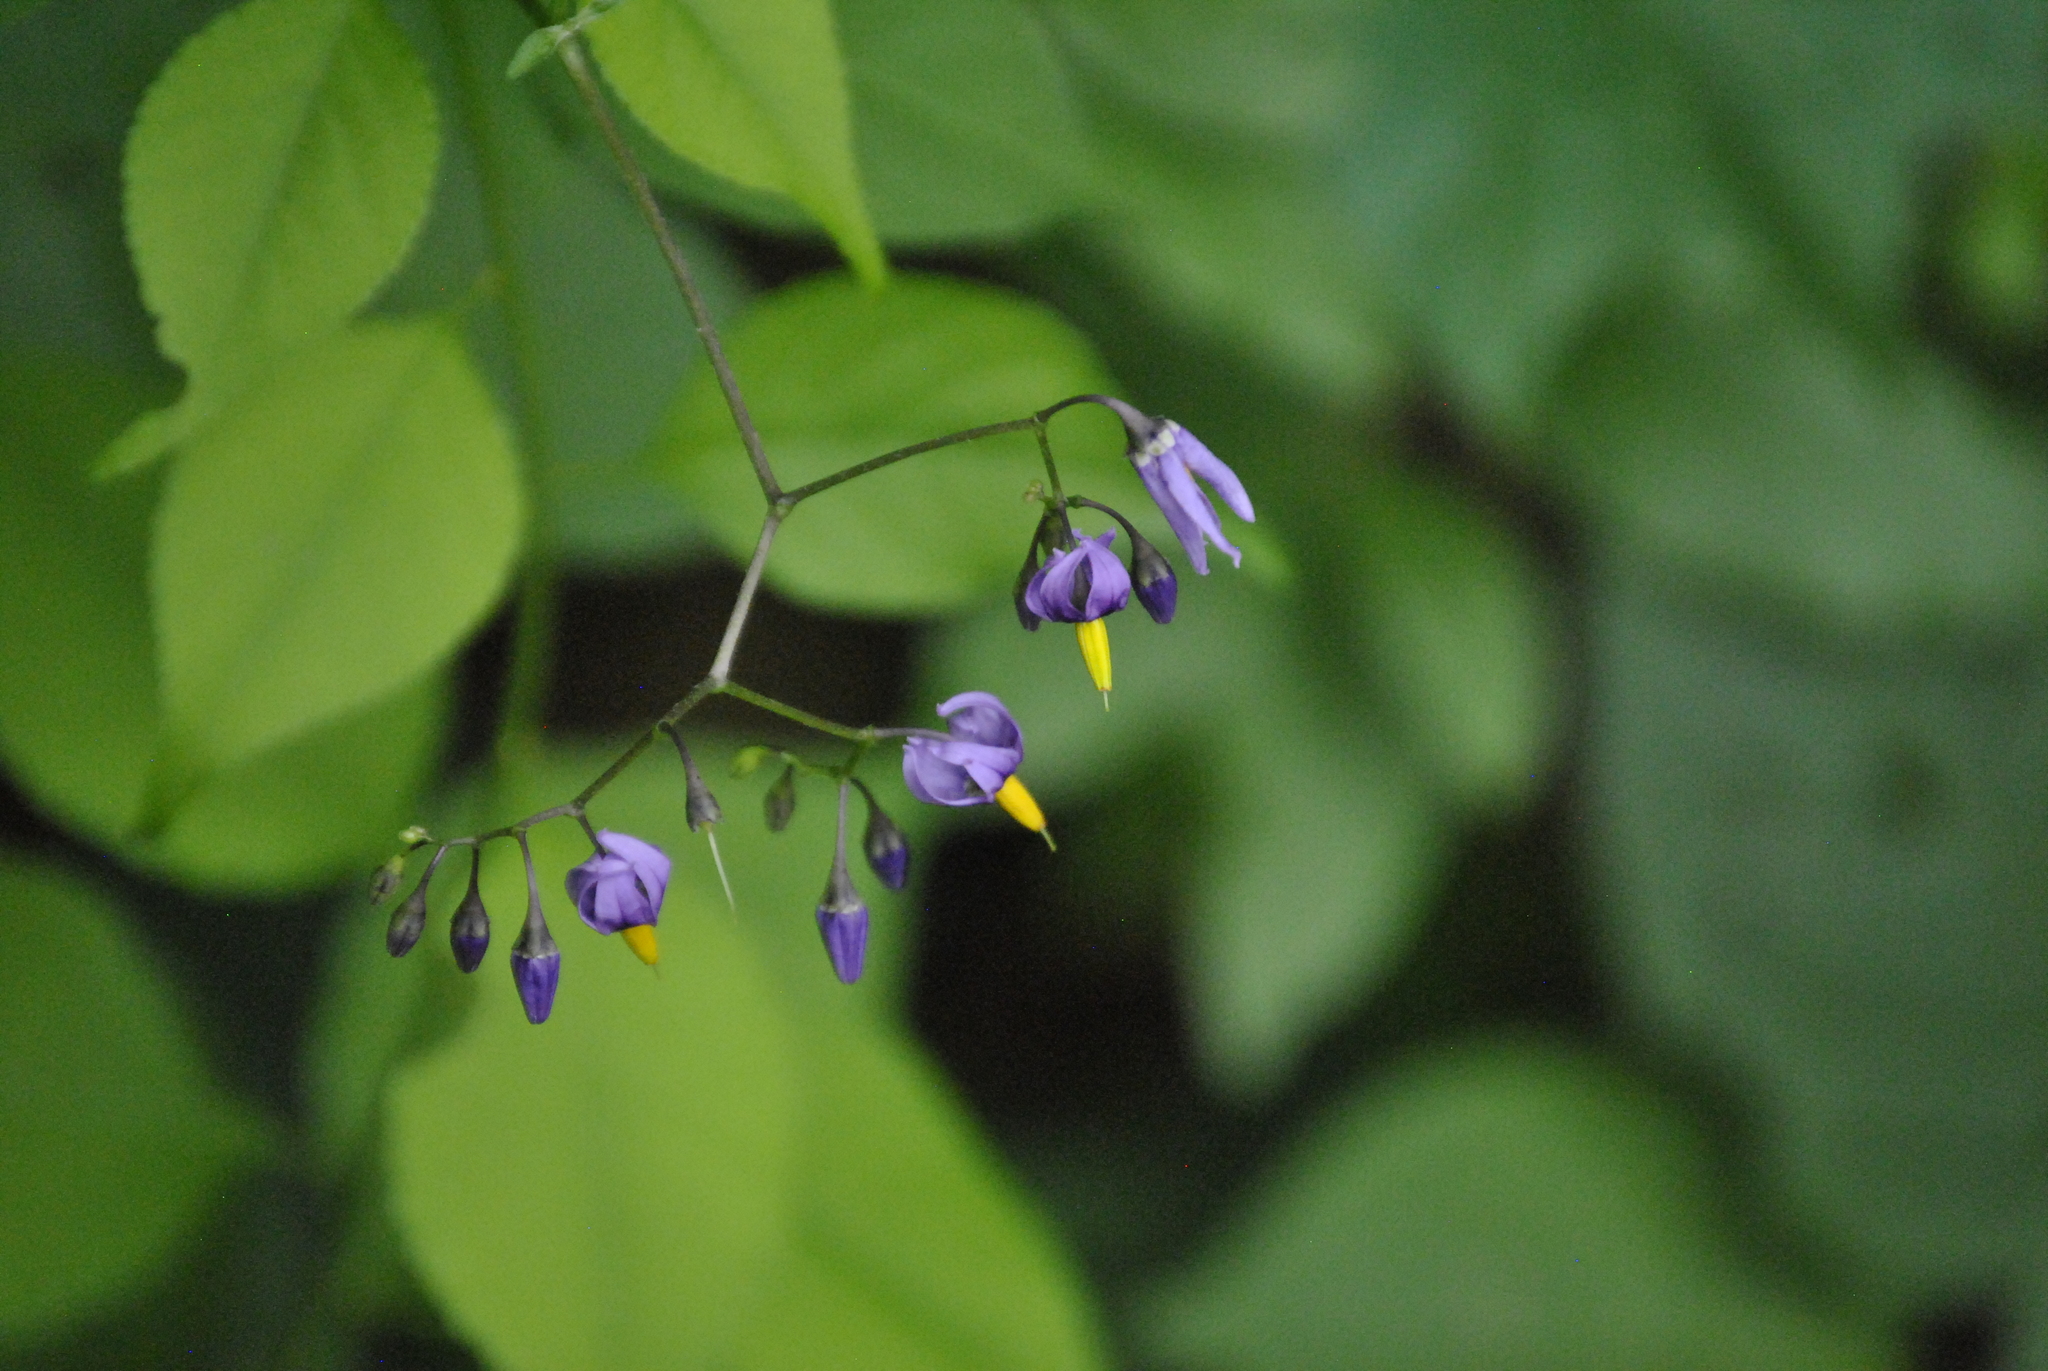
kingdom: Plantae
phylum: Tracheophyta
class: Magnoliopsida
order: Solanales
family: Solanaceae
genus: Solanum
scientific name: Solanum dulcamara
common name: Climbing nightshade
